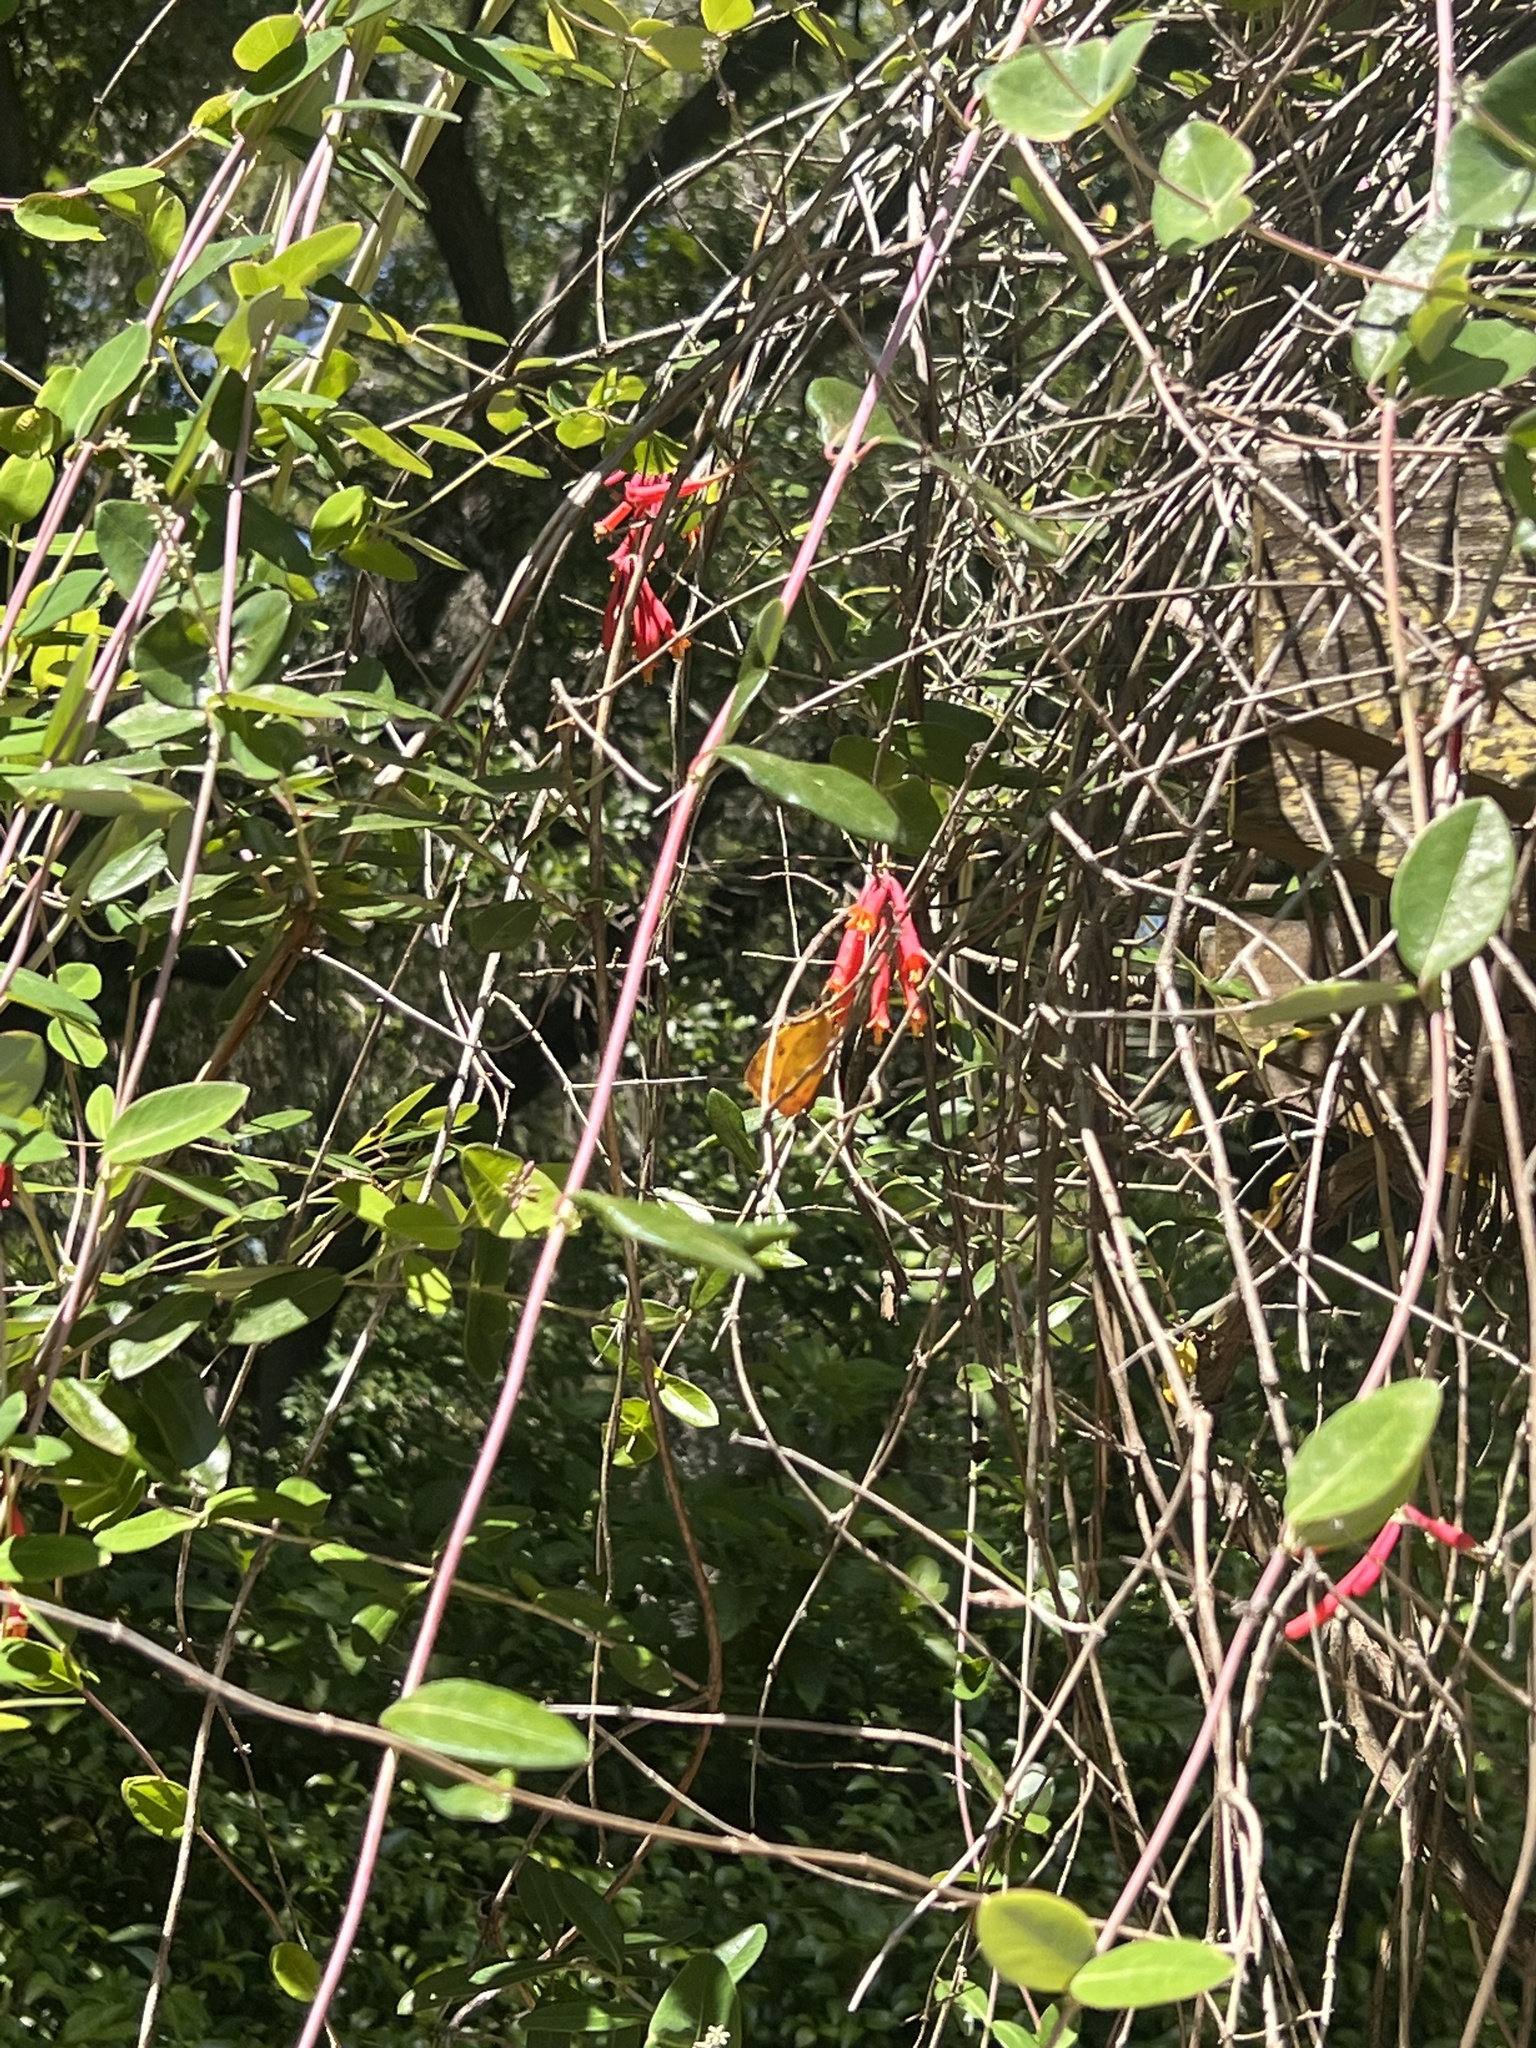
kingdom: Animalia
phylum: Arthropoda
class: Insecta
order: Lepidoptera
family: Pieridae
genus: Phoebis
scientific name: Phoebis philea
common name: Orange-barred giant sulphur
